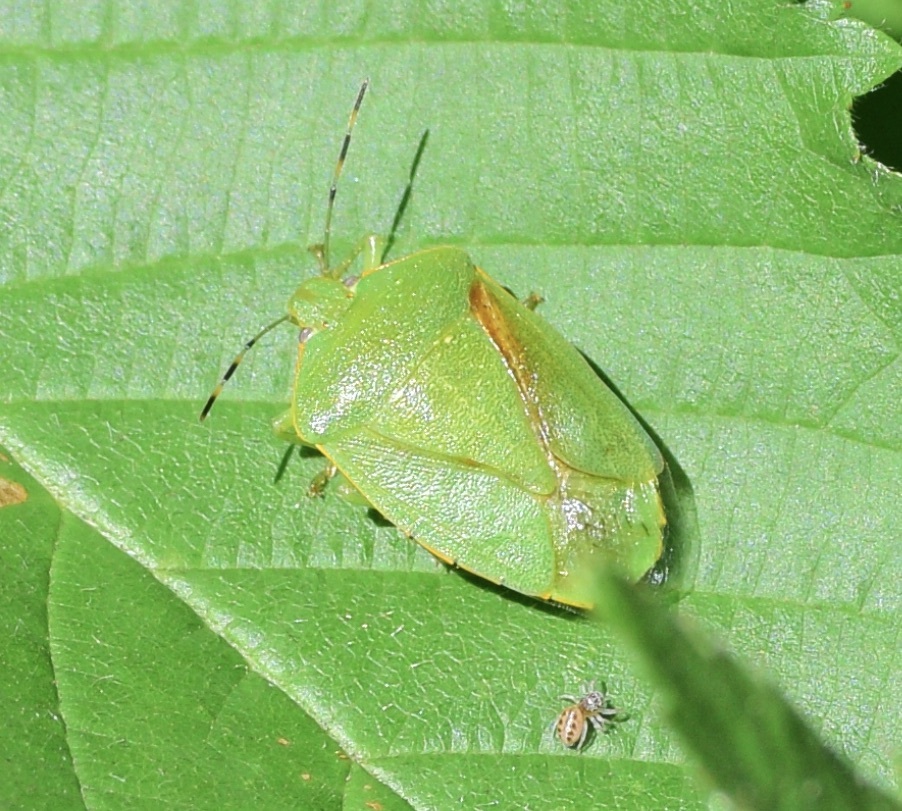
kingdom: Animalia
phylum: Arthropoda
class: Insecta
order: Hemiptera
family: Pentatomidae
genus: Chinavia
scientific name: Chinavia hilaris
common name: Green stink bug
